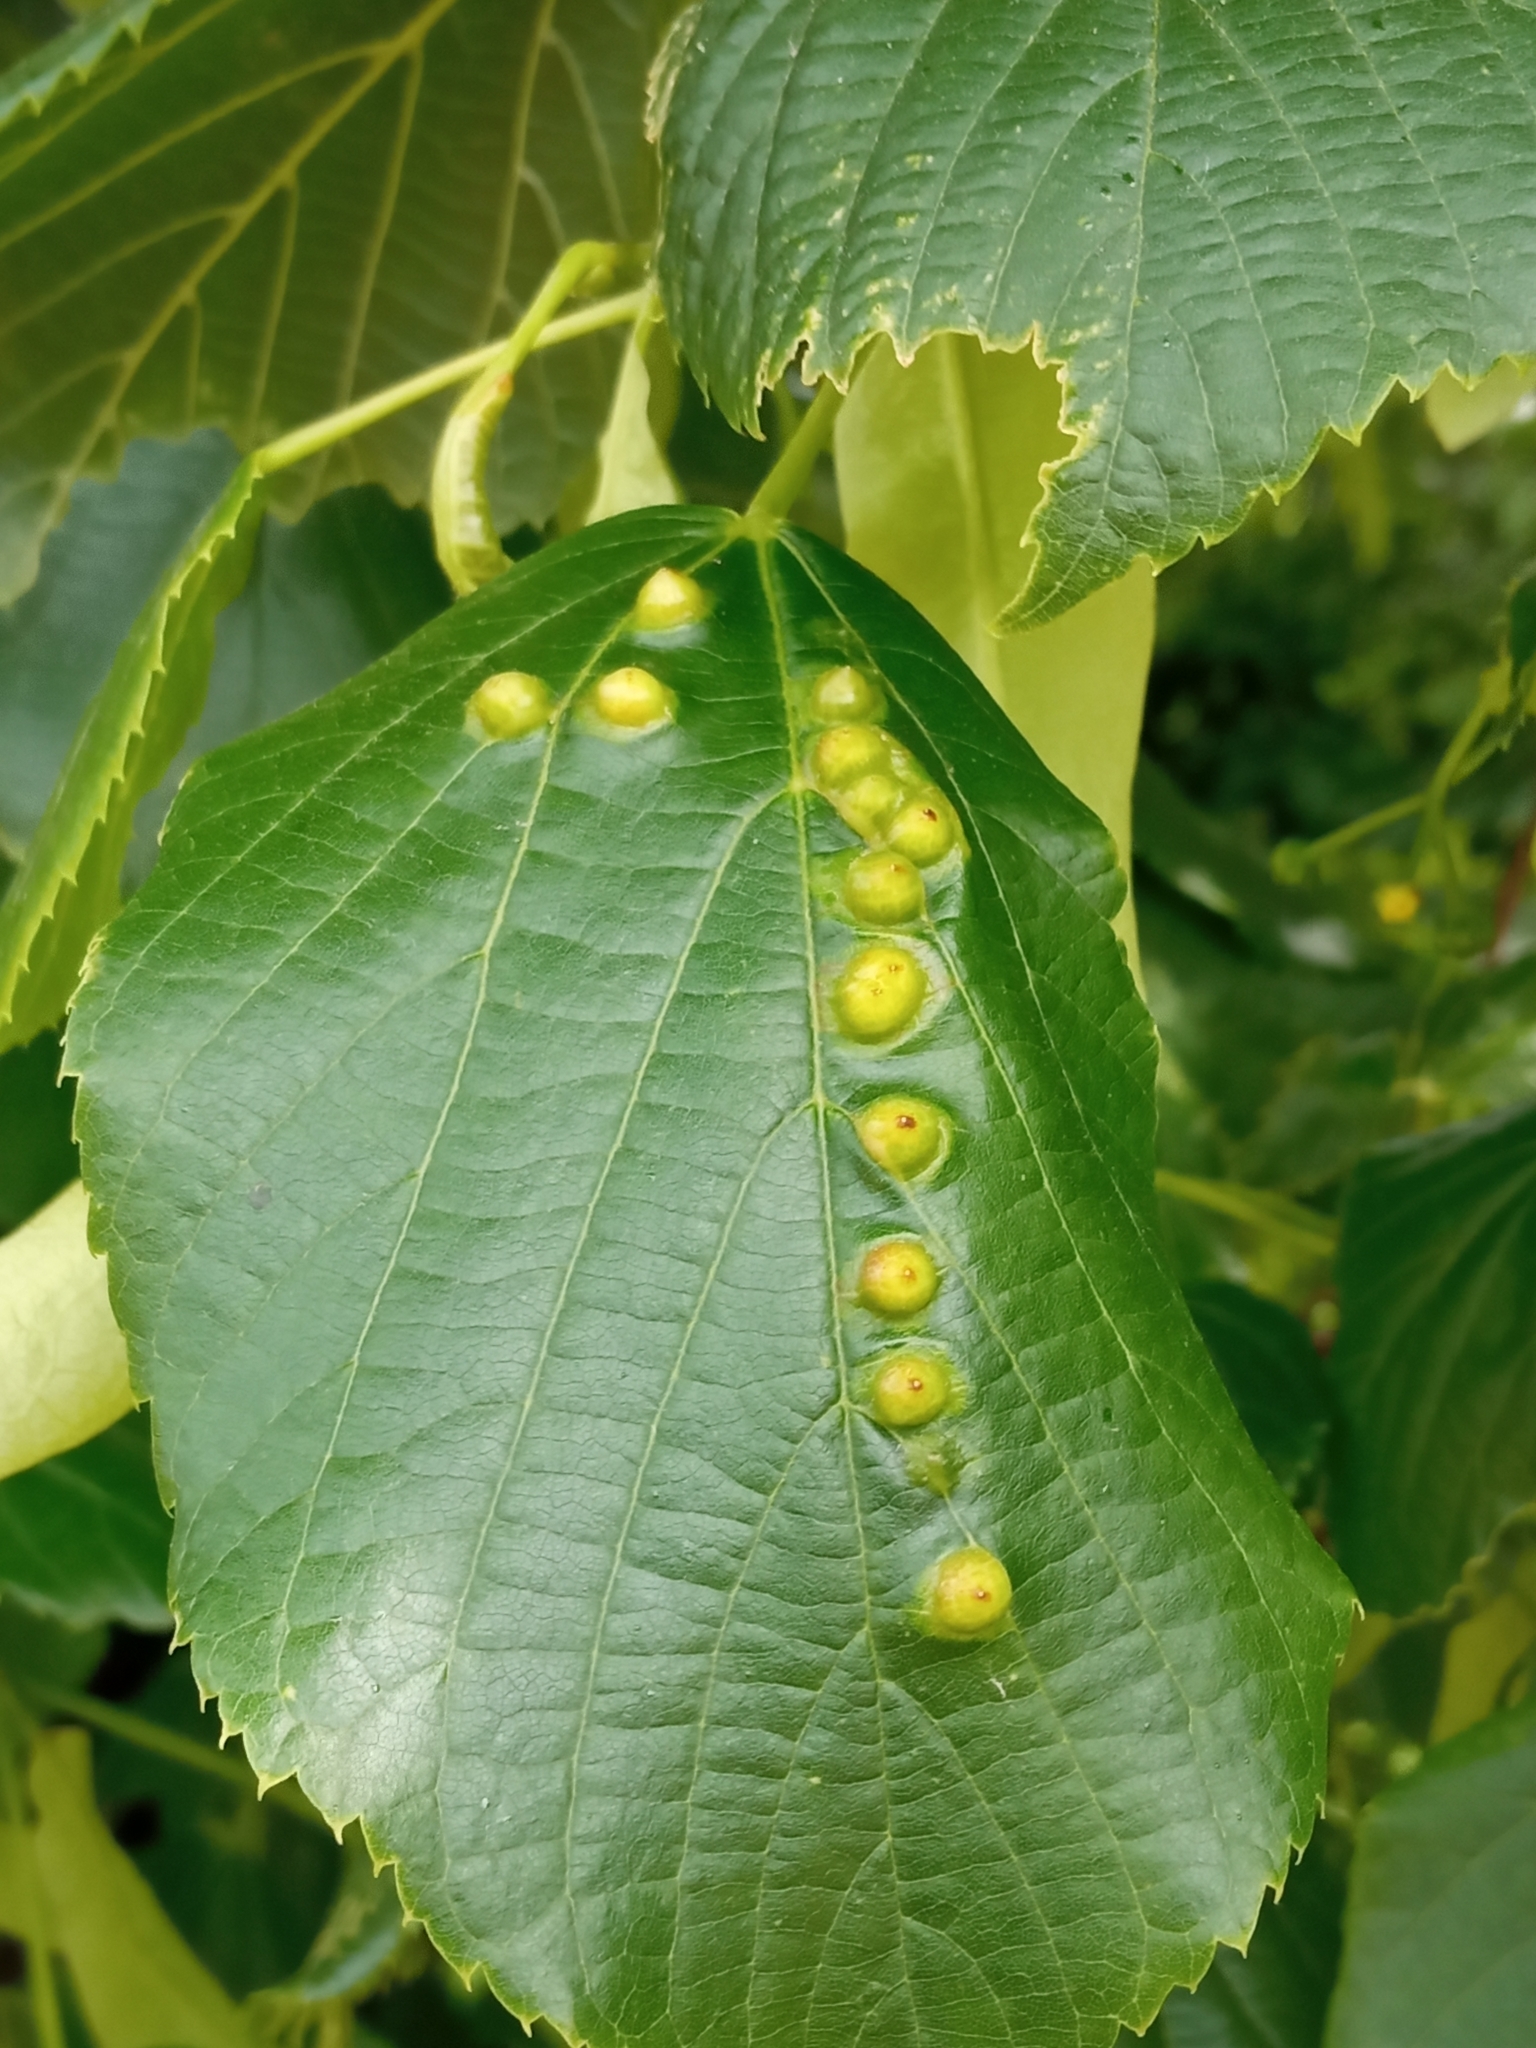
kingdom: Animalia
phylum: Arthropoda
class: Insecta
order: Diptera
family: Cecidomyiidae
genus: Didymomyia
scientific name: Didymomyia tiliacea
